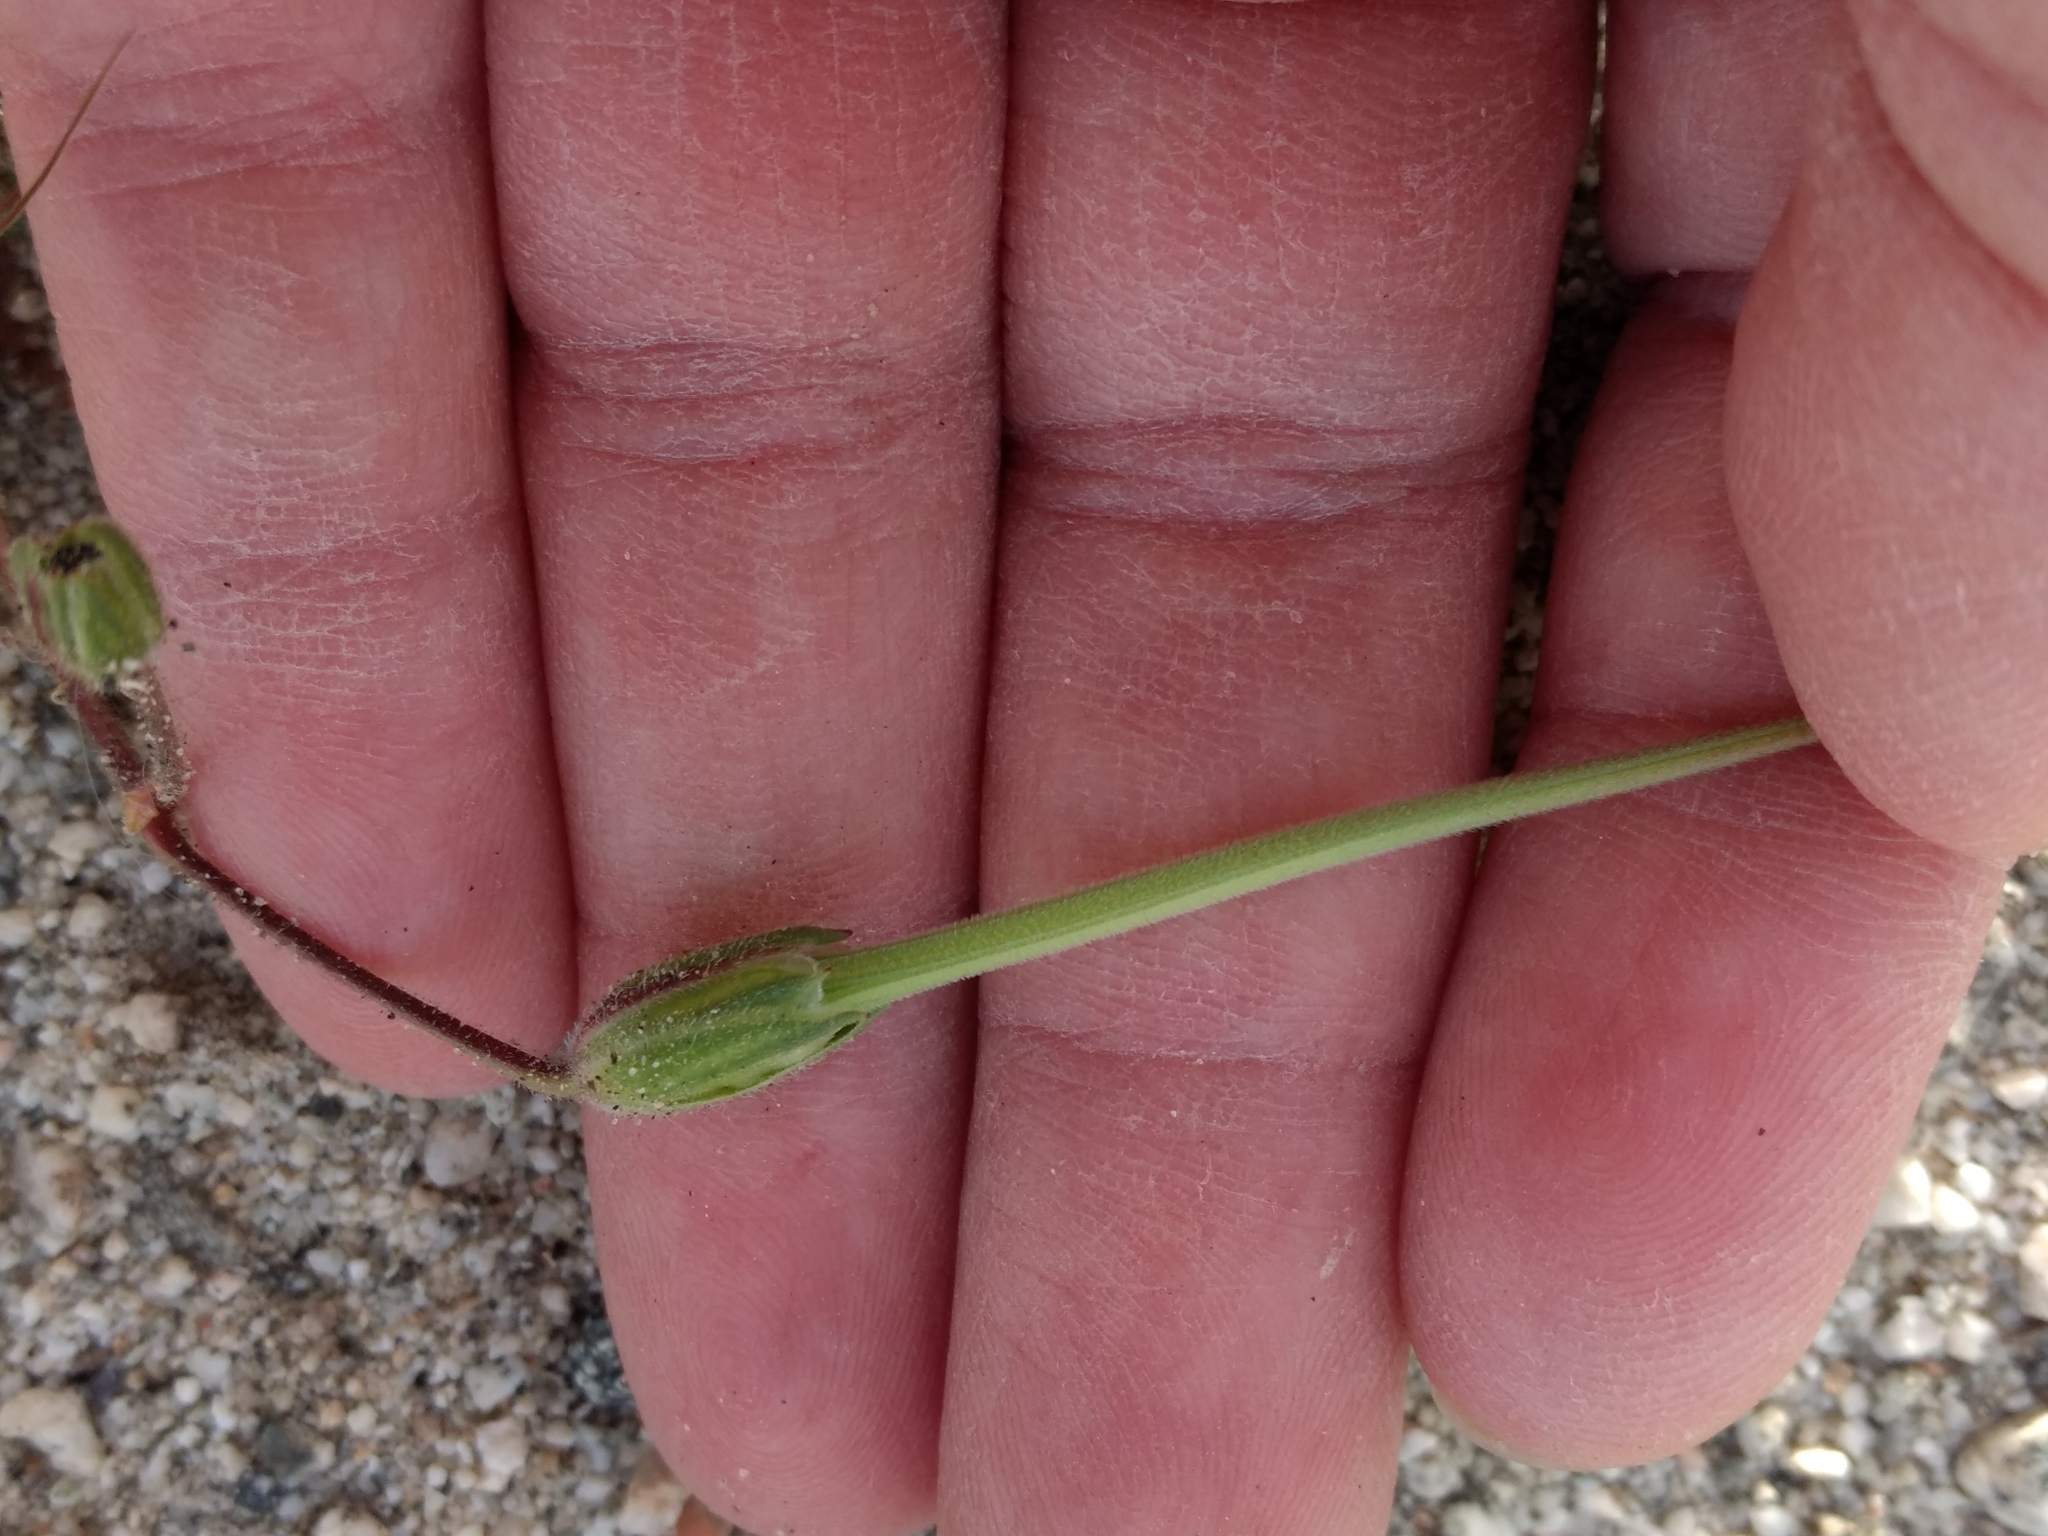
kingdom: Plantae
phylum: Tracheophyta
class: Magnoliopsida
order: Geraniales
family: Geraniaceae
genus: Erodium
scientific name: Erodium botrys
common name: Mediterranean stork's-bill
